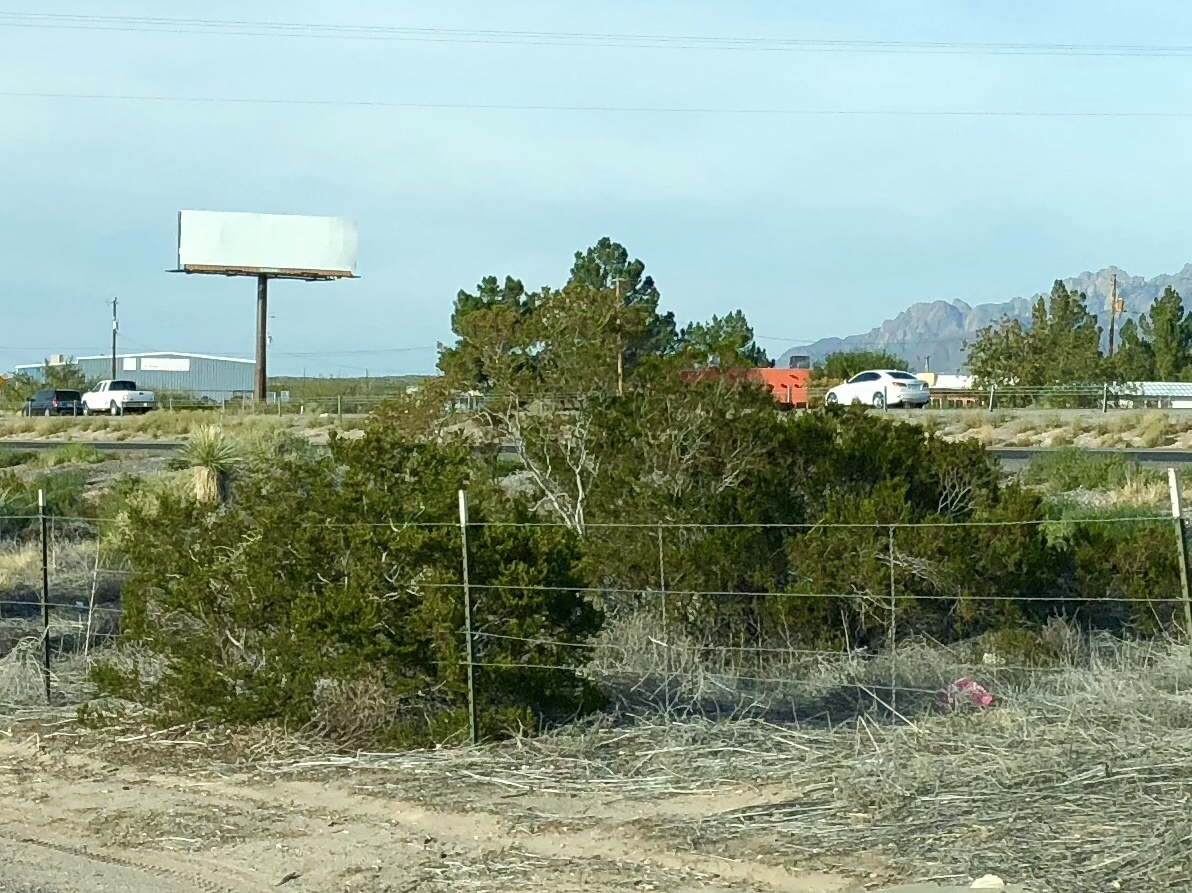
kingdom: Plantae
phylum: Tracheophyta
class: Magnoliopsida
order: Zygophyllales
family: Zygophyllaceae
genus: Larrea
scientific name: Larrea tridentata
